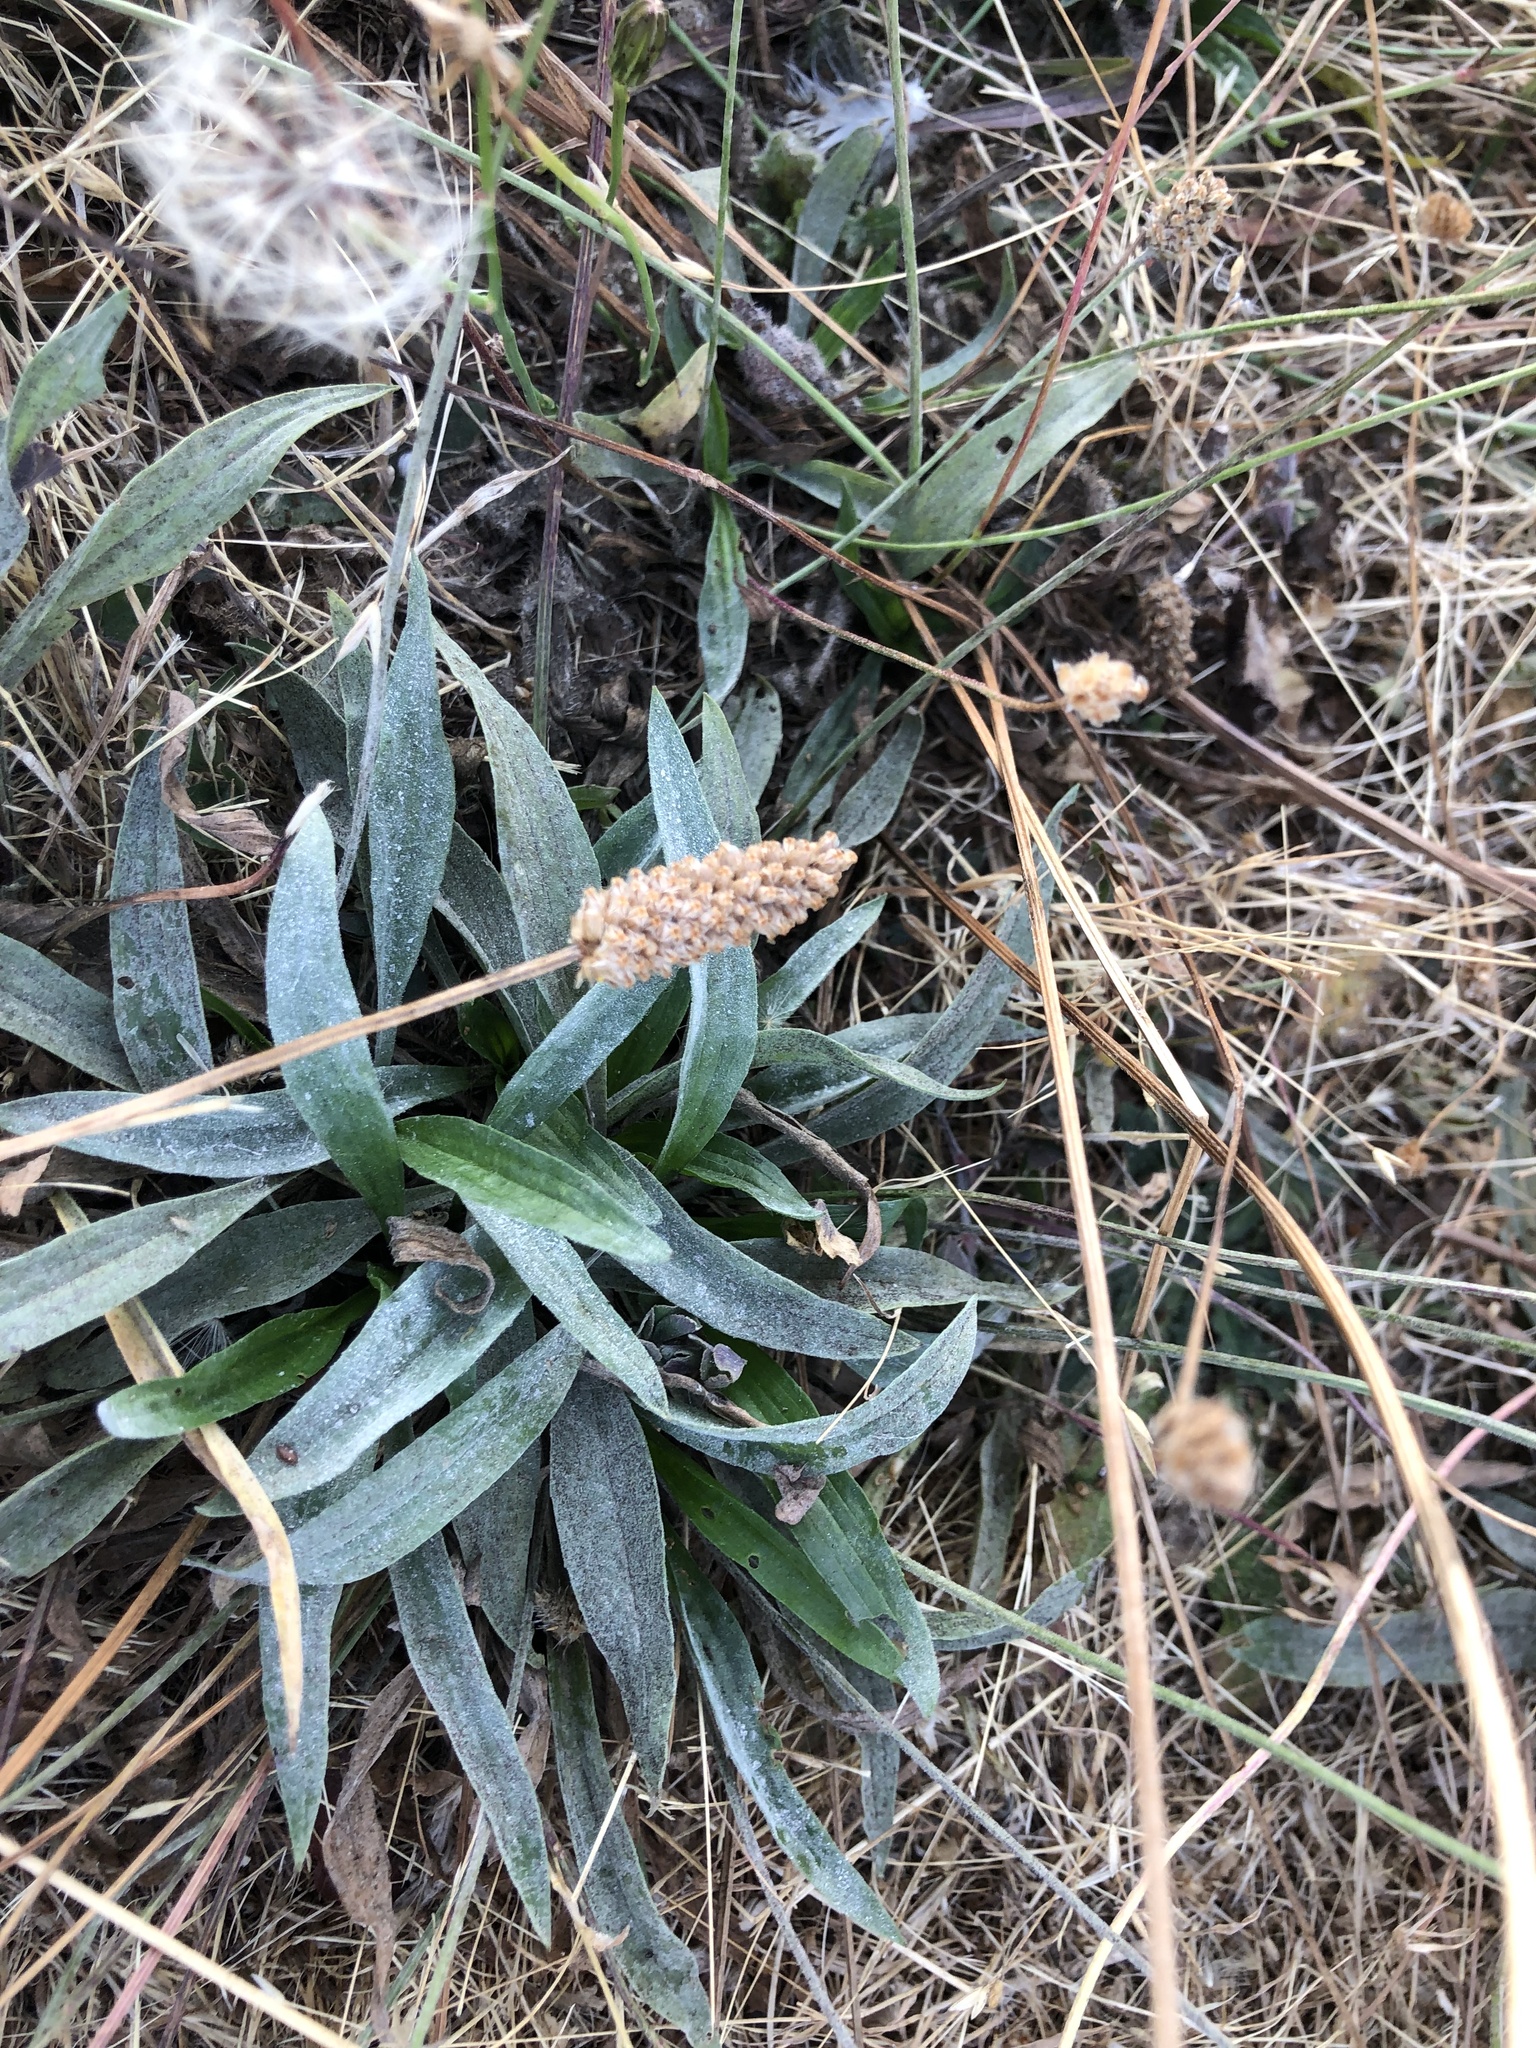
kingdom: Plantae
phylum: Tracheophyta
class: Magnoliopsida
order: Lamiales
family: Plantaginaceae
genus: Plantago
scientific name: Plantago lanceolata
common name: Ribwort plantain
